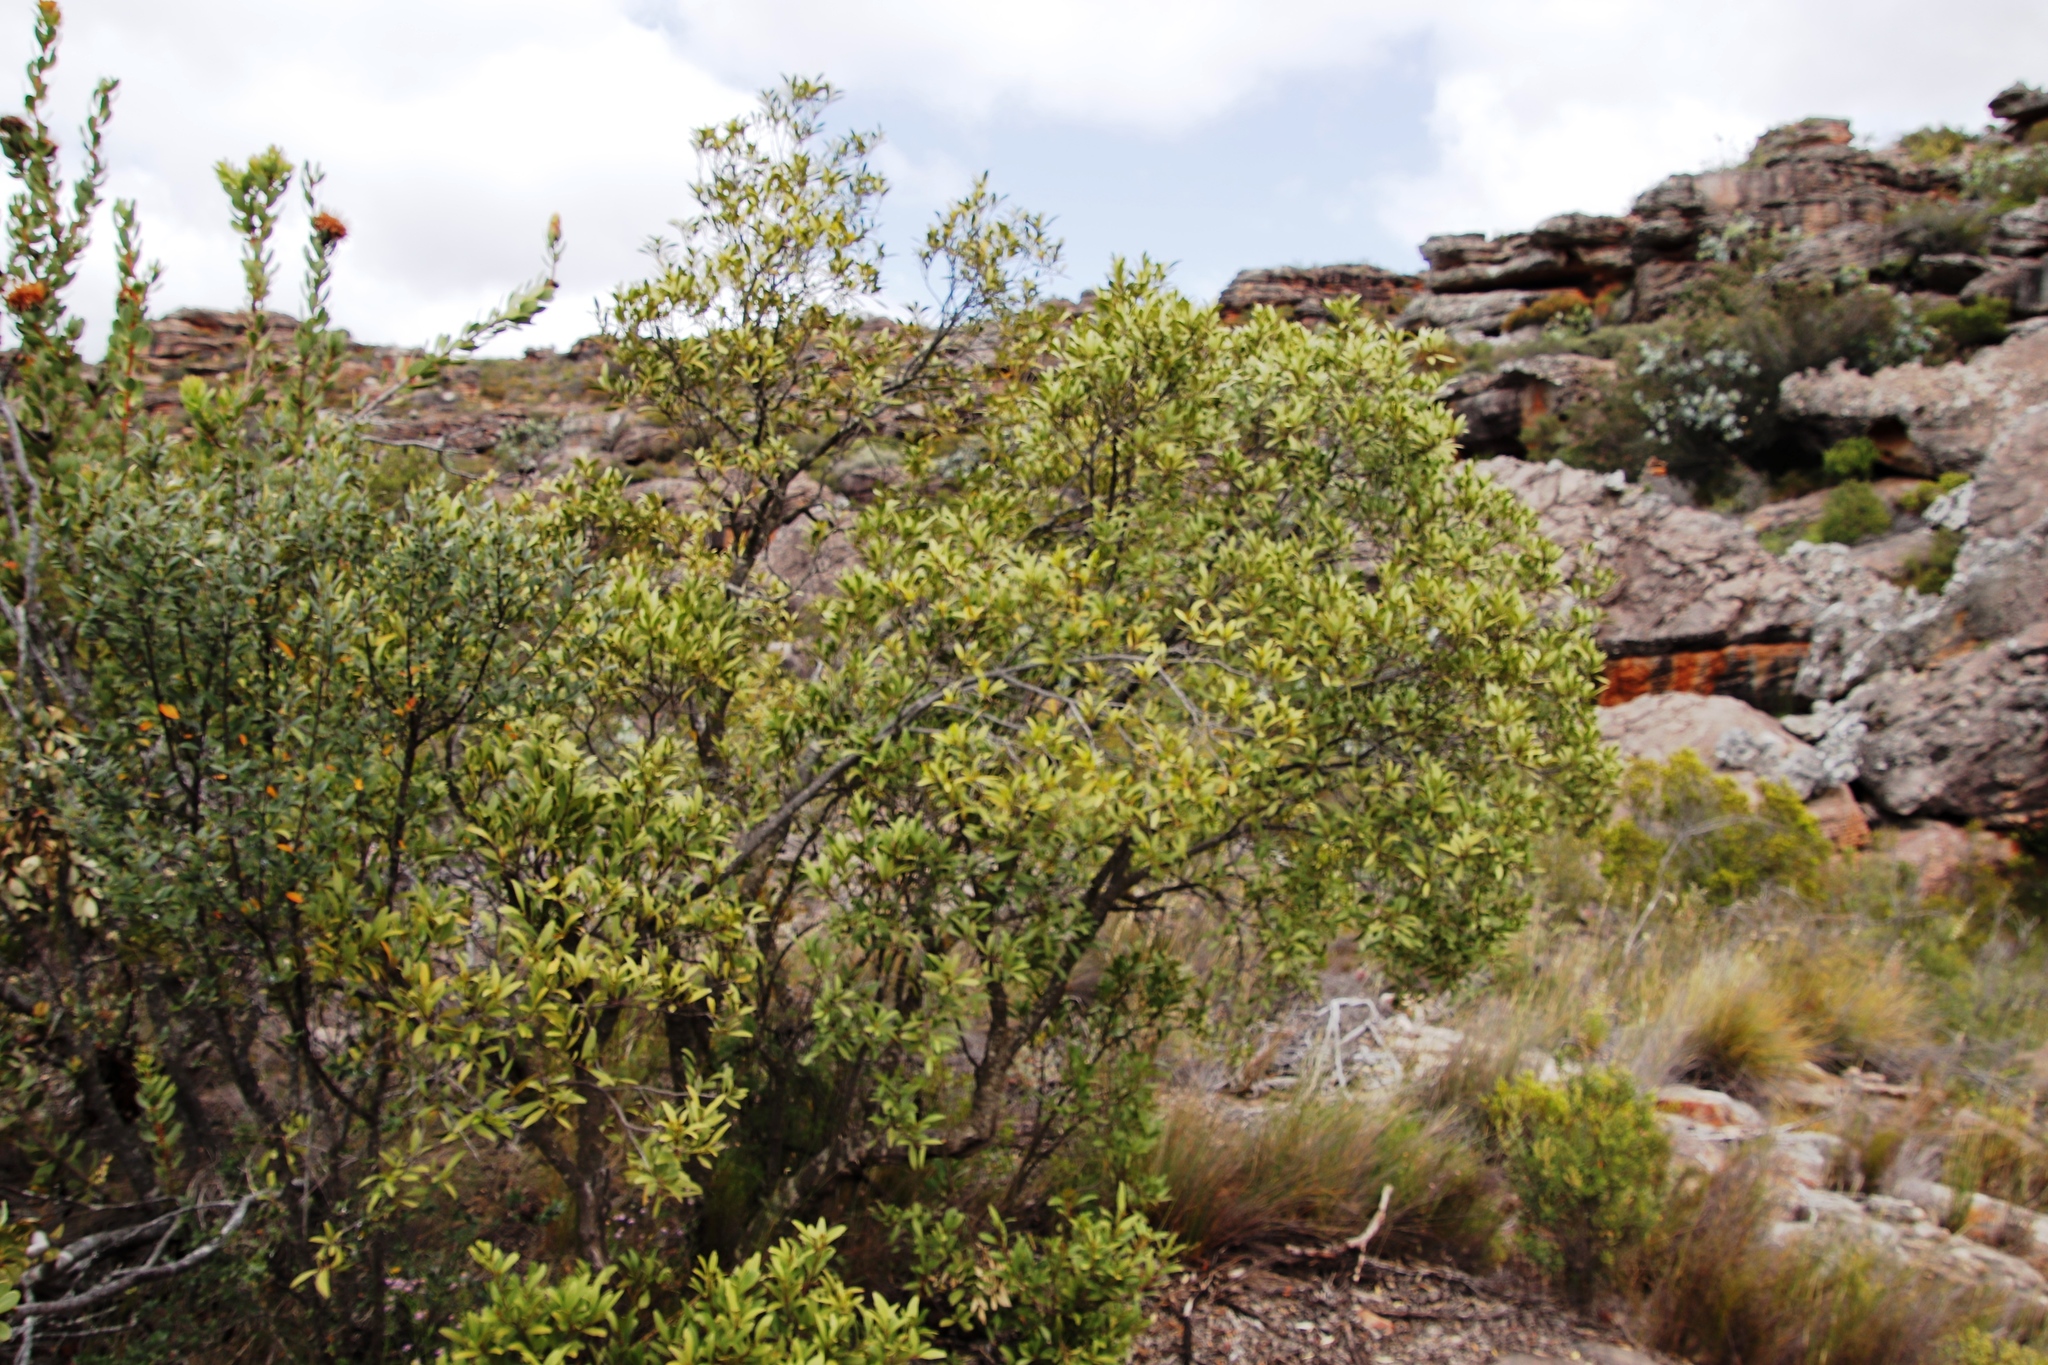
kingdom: Plantae
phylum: Tracheophyta
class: Magnoliopsida
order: Celastrales
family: Celastraceae
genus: Gymnosporia
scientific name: Gymnosporia laurina
